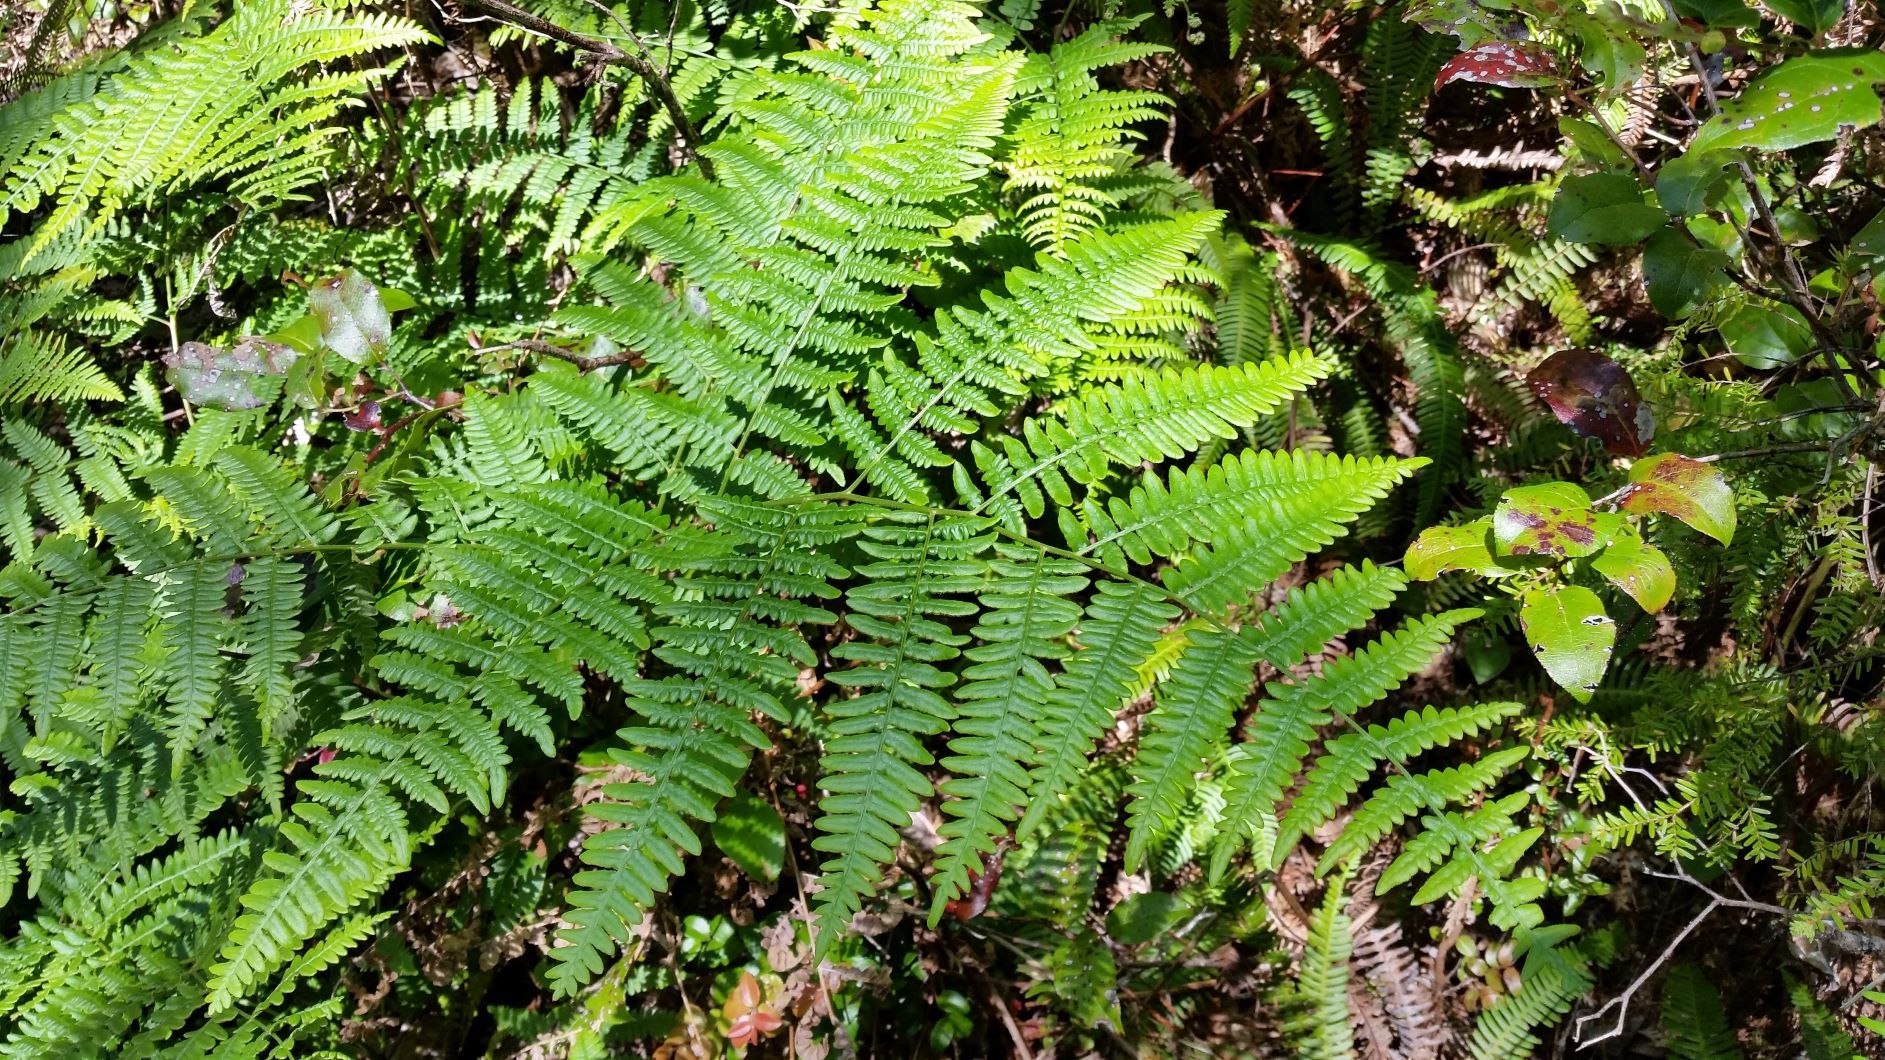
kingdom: Plantae
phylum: Tracheophyta
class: Polypodiopsida
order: Polypodiales
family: Dennstaedtiaceae
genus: Pteridium
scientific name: Pteridium aquilinum
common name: Bracken
